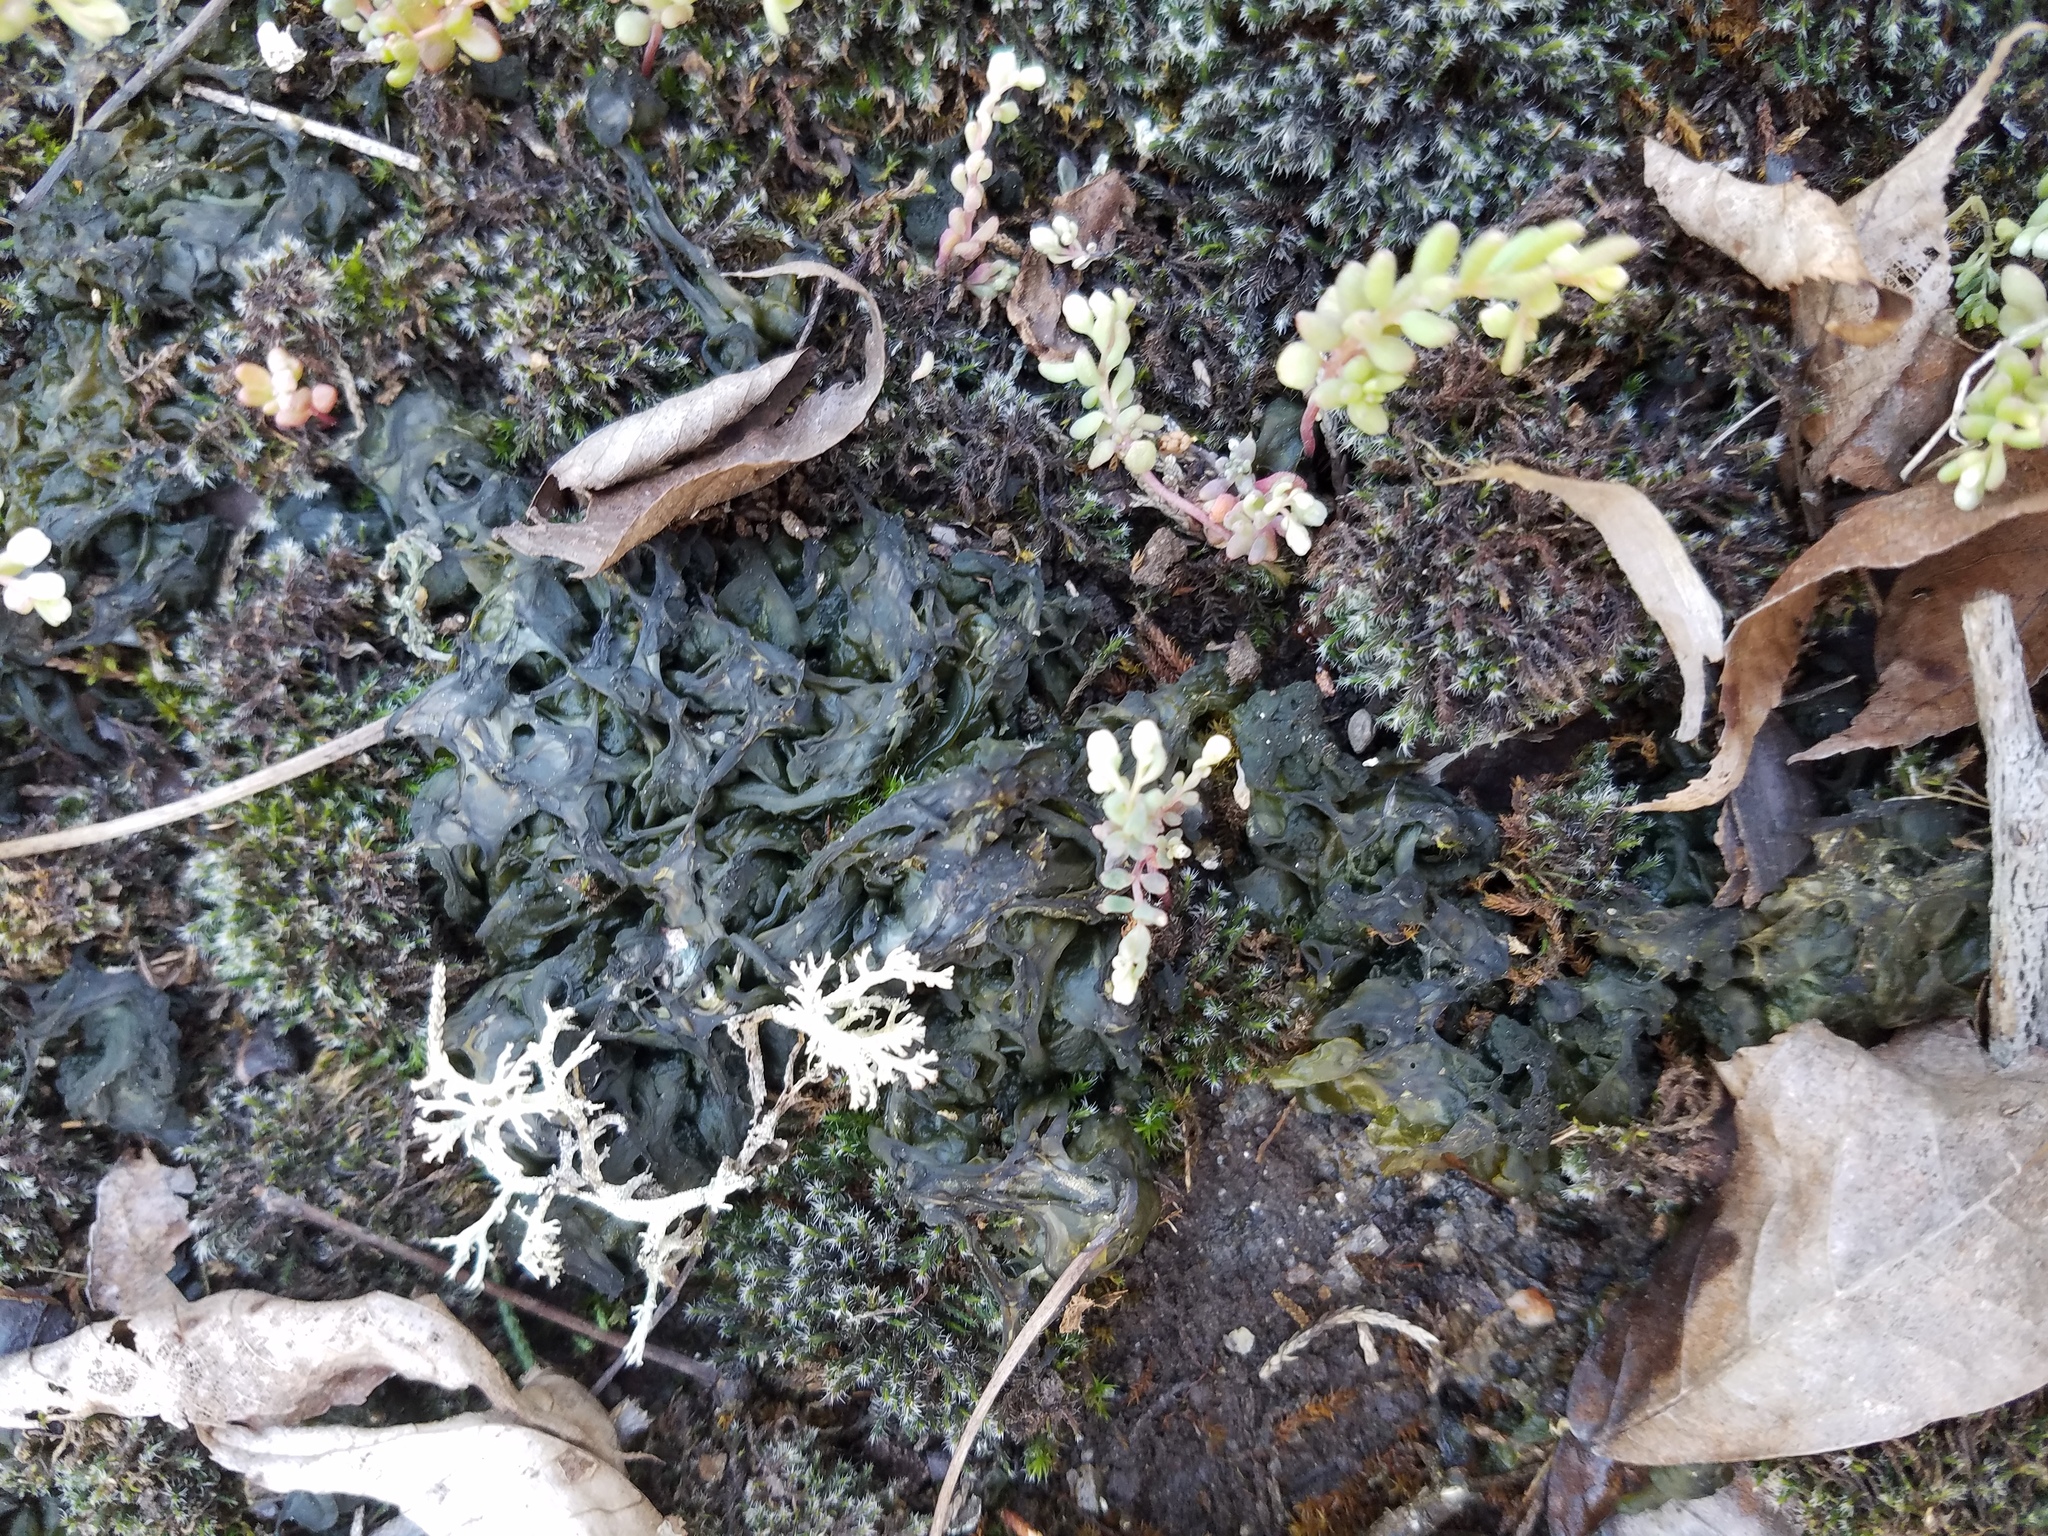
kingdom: Bacteria
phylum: Cyanobacteria
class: Cyanobacteriia
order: Cyanobacteriales
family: Nostocaceae
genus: Nostoc
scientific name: Nostoc commune
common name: Star jelly
